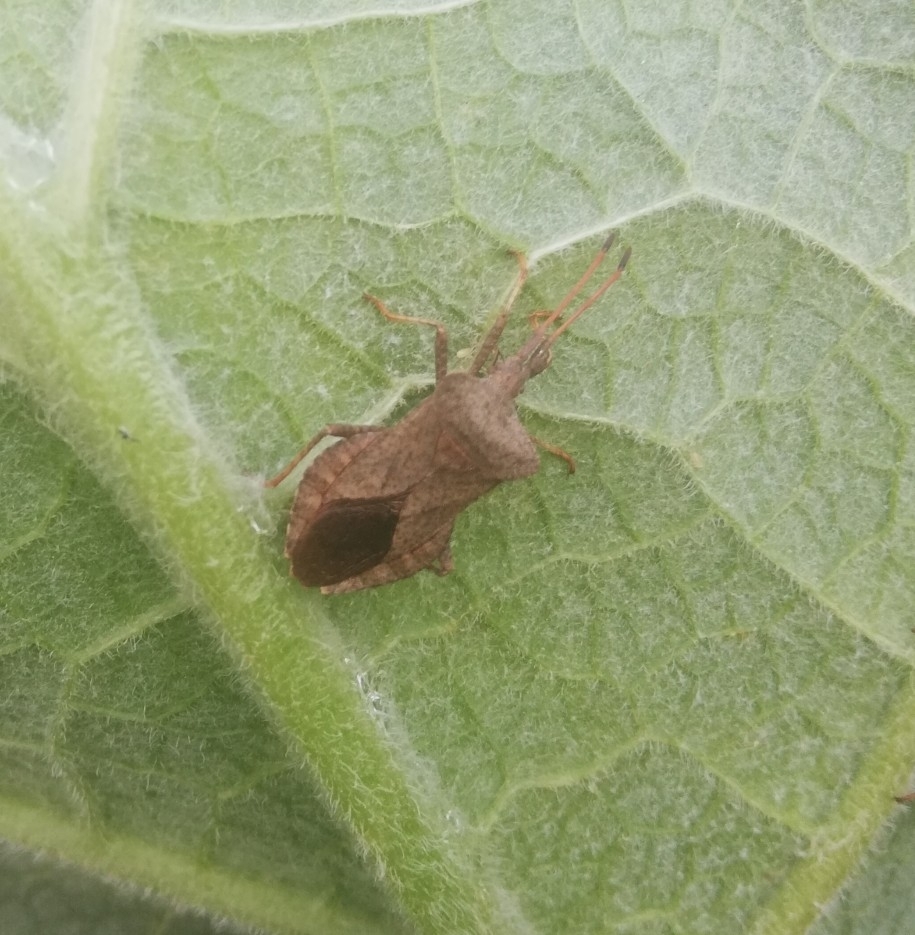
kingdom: Animalia
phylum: Arthropoda
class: Insecta
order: Hemiptera
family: Coreidae
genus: Coreus
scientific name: Coreus marginatus
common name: Dock bug
